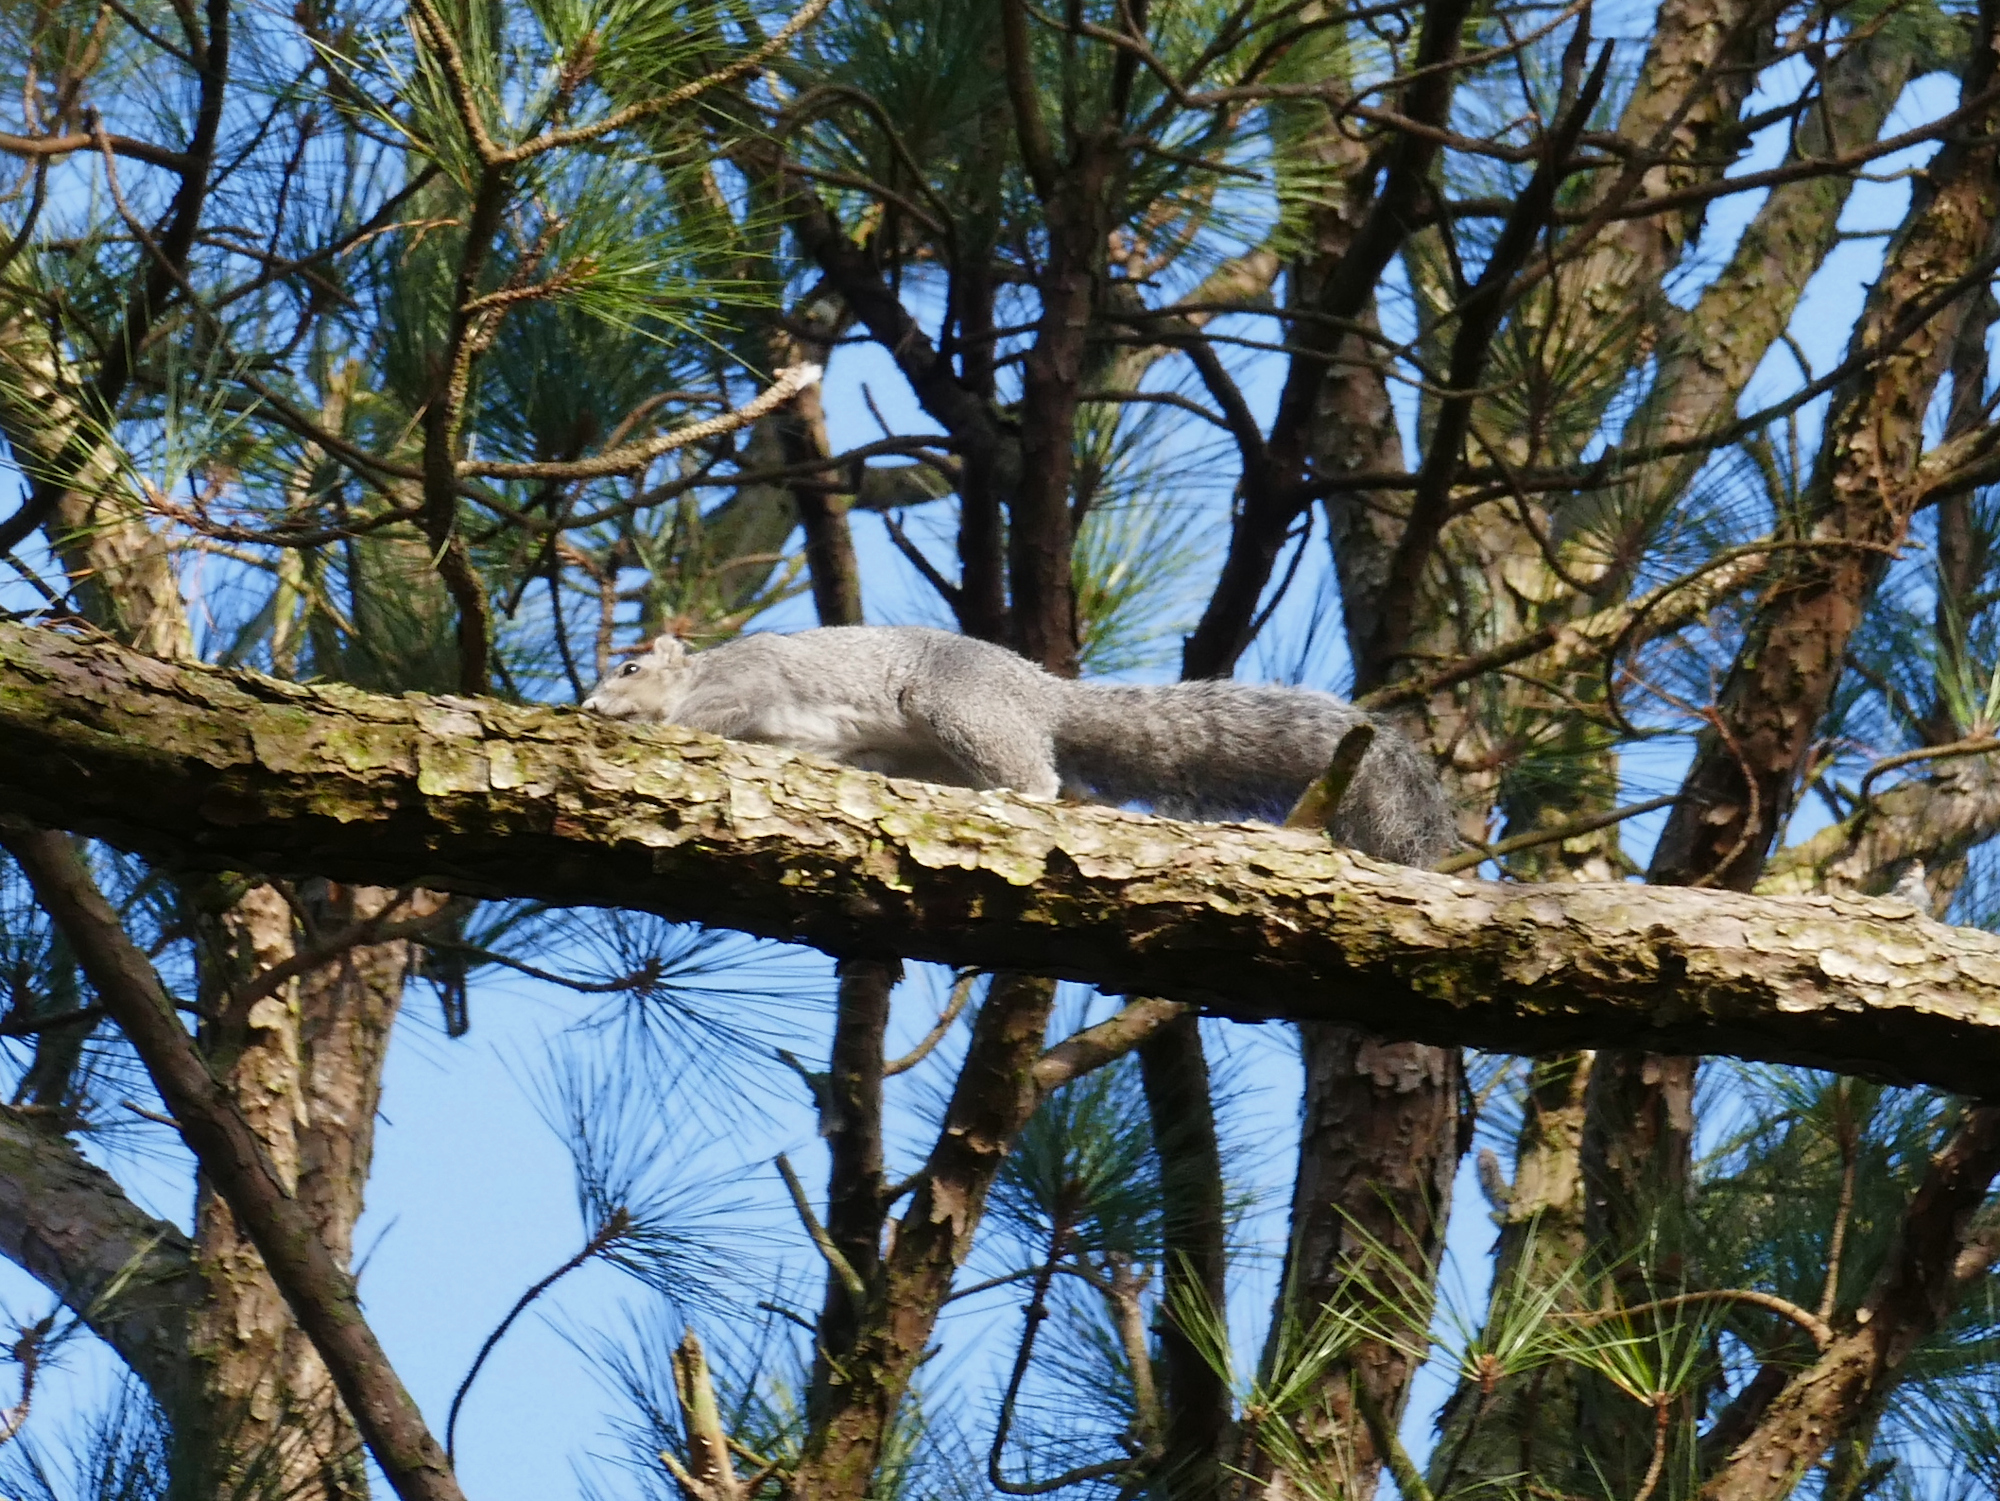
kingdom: Animalia
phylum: Chordata
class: Mammalia
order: Rodentia
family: Sciuridae
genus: Sciurus
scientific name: Sciurus niger
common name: Fox squirrel
